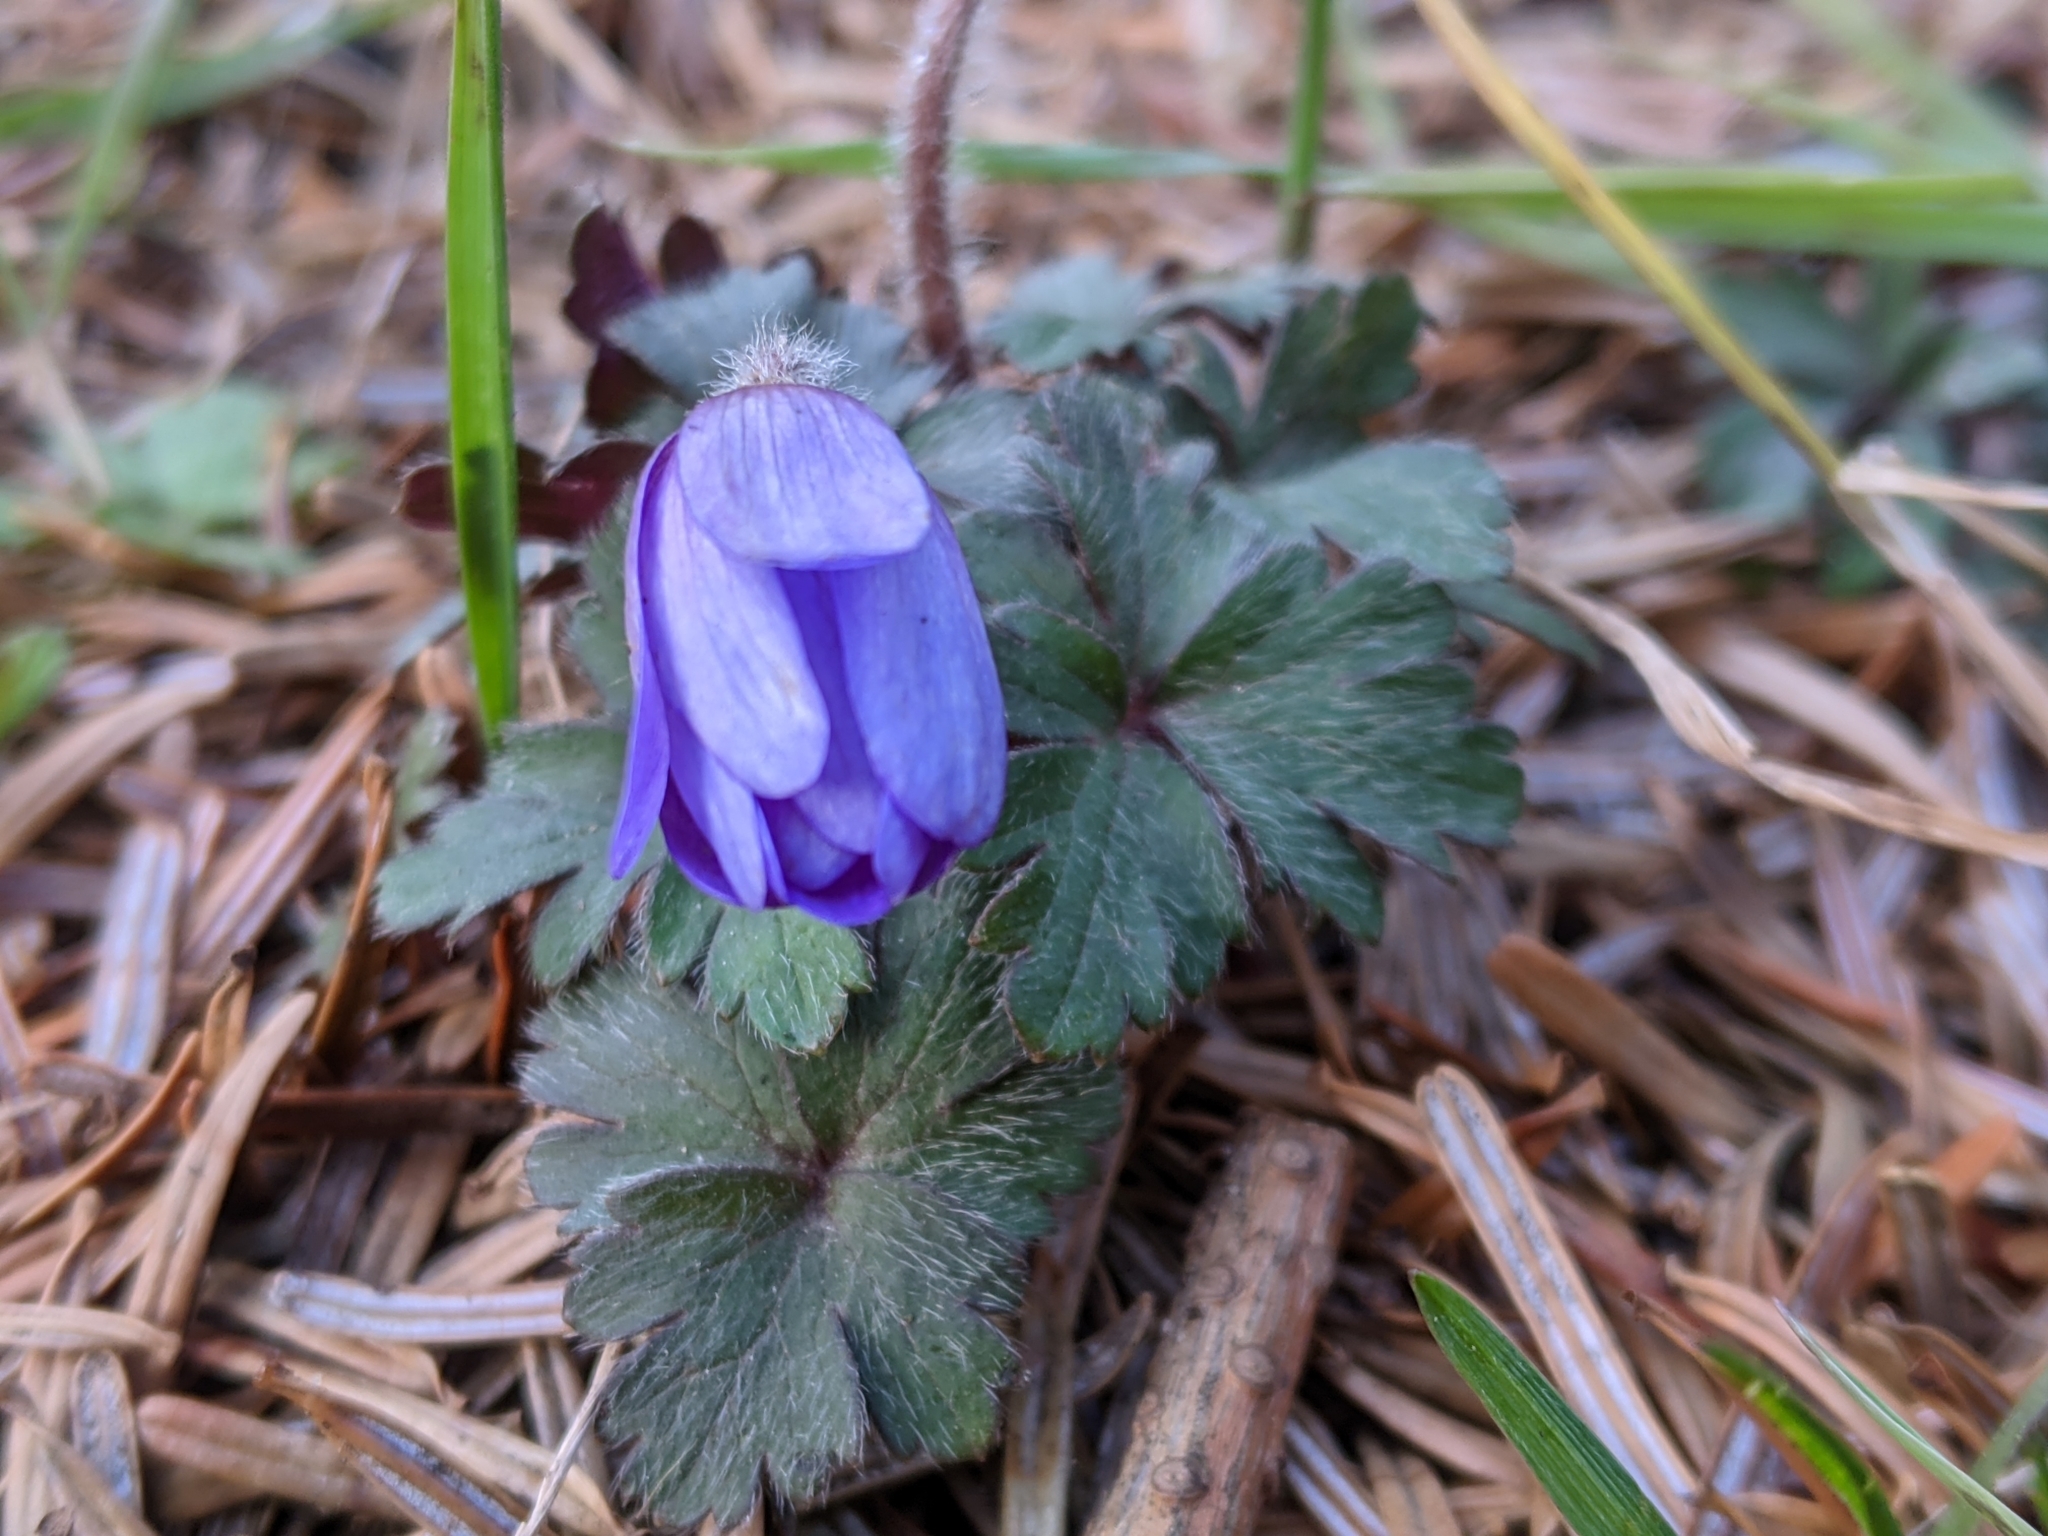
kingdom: Plantae
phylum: Tracheophyta
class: Magnoliopsida
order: Ranunculales
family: Ranunculaceae
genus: Anemone
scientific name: Anemone blanda
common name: Balkan anemone
